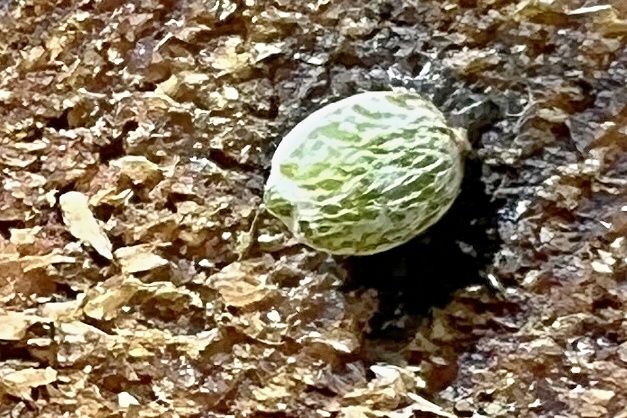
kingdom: Plantae
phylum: Tracheophyta
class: Magnoliopsida
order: Santalales
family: Viscaceae
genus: Viscum
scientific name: Viscum album
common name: Mistletoe
